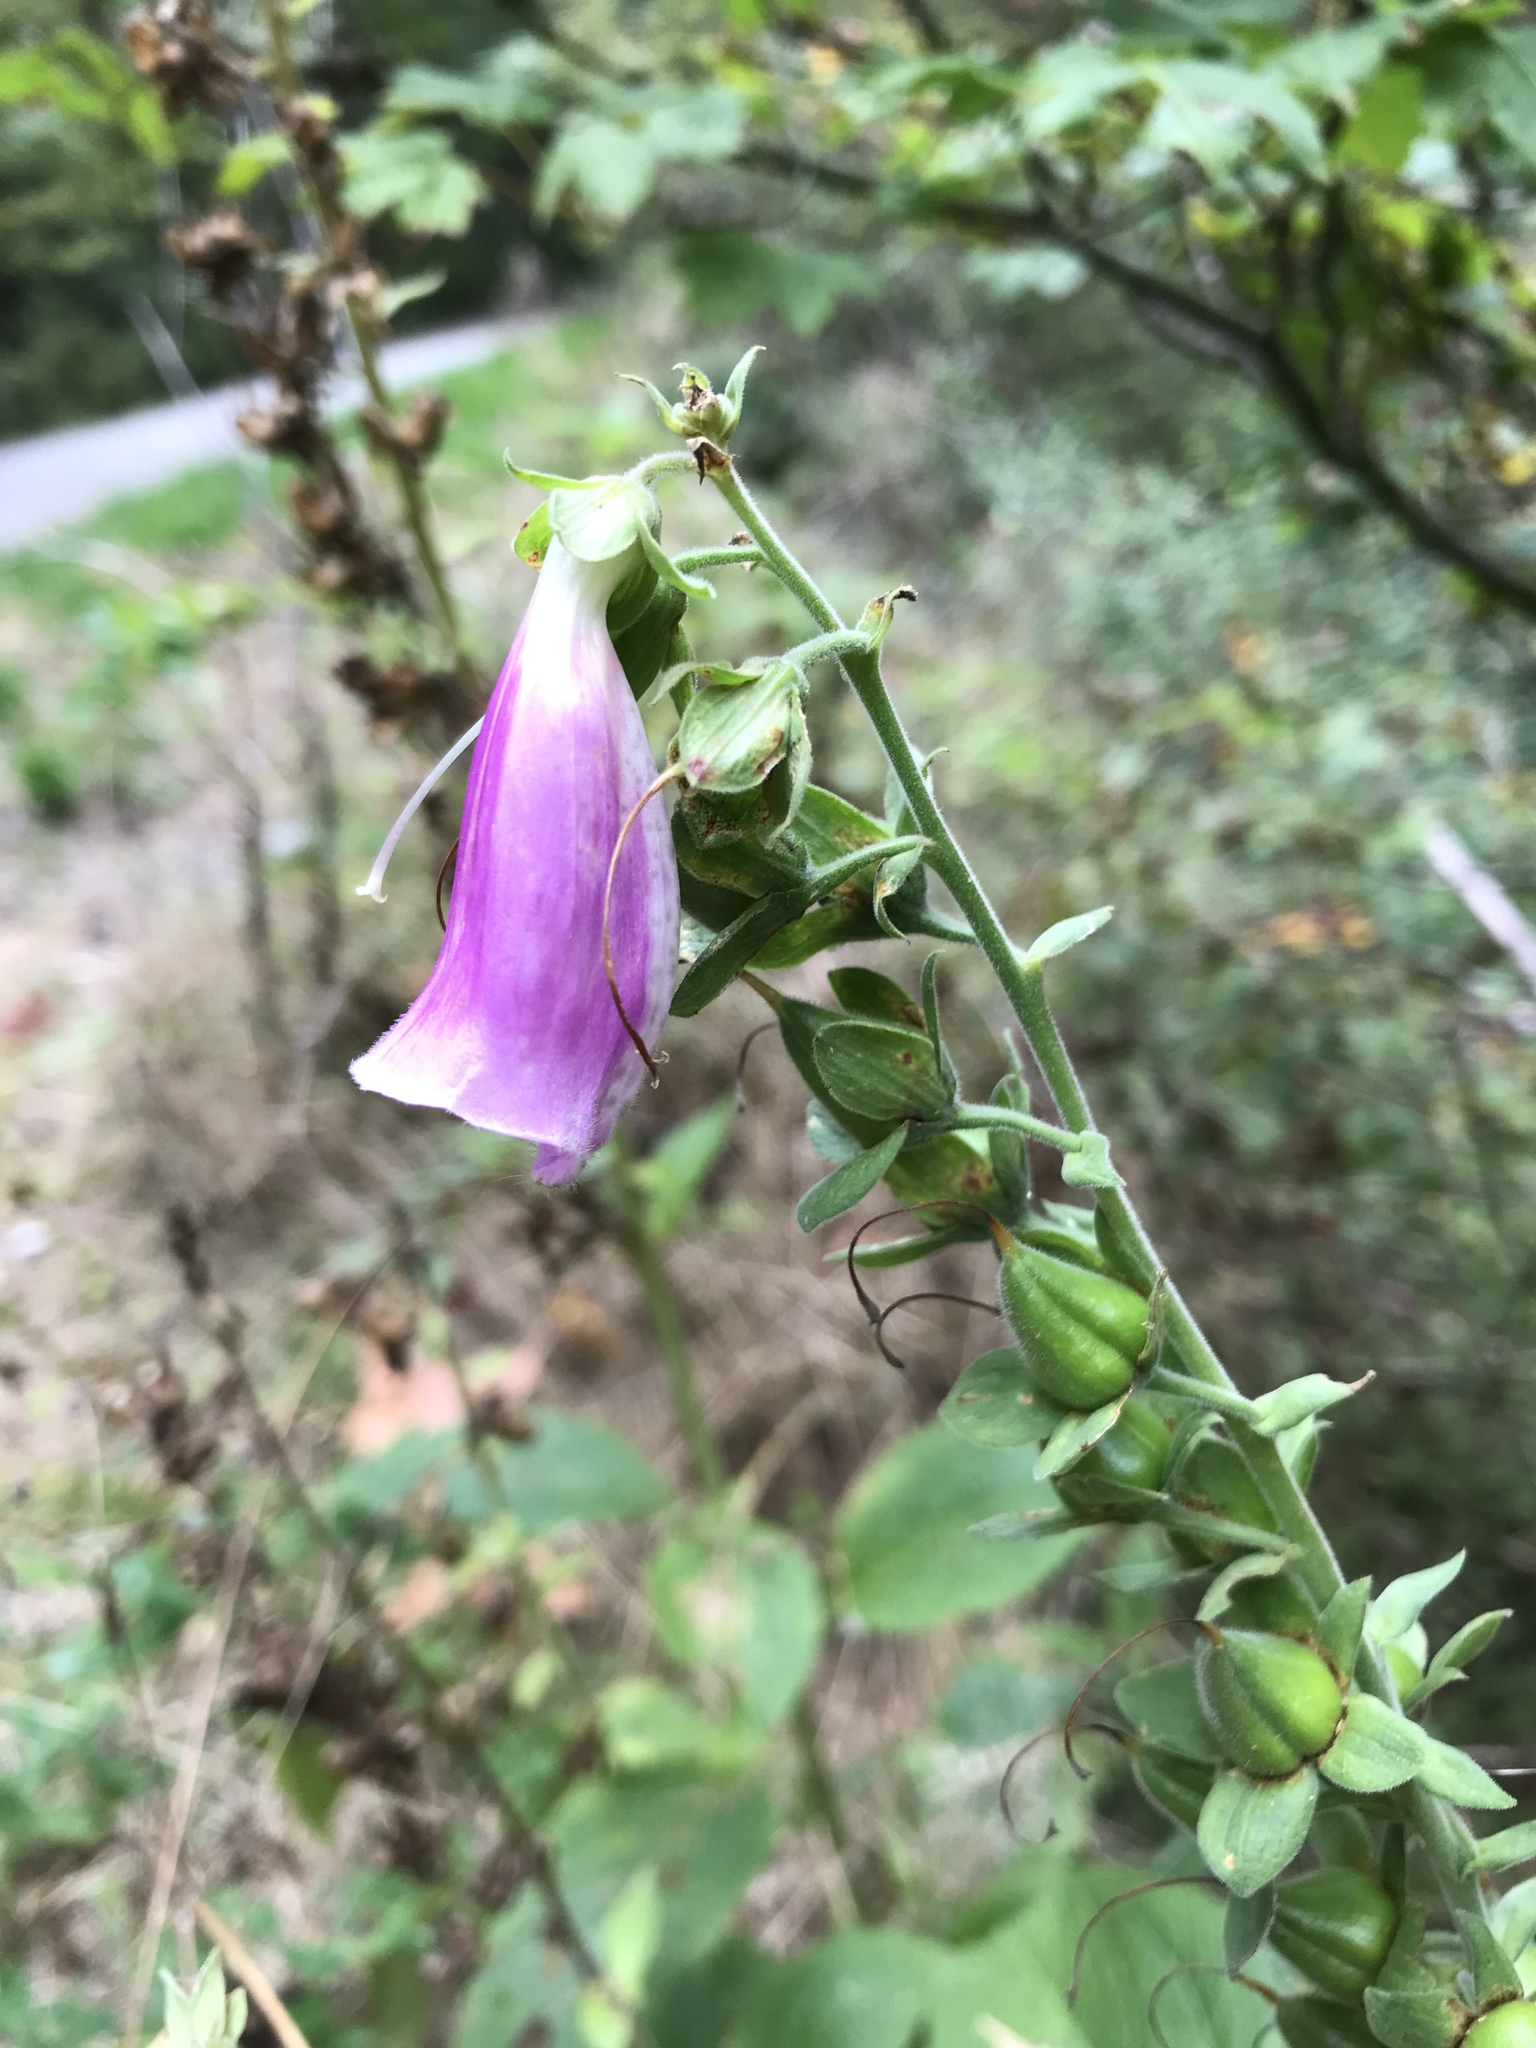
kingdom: Plantae
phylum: Tracheophyta
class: Magnoliopsida
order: Lamiales
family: Plantaginaceae
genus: Digitalis
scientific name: Digitalis purpurea
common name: Foxglove
